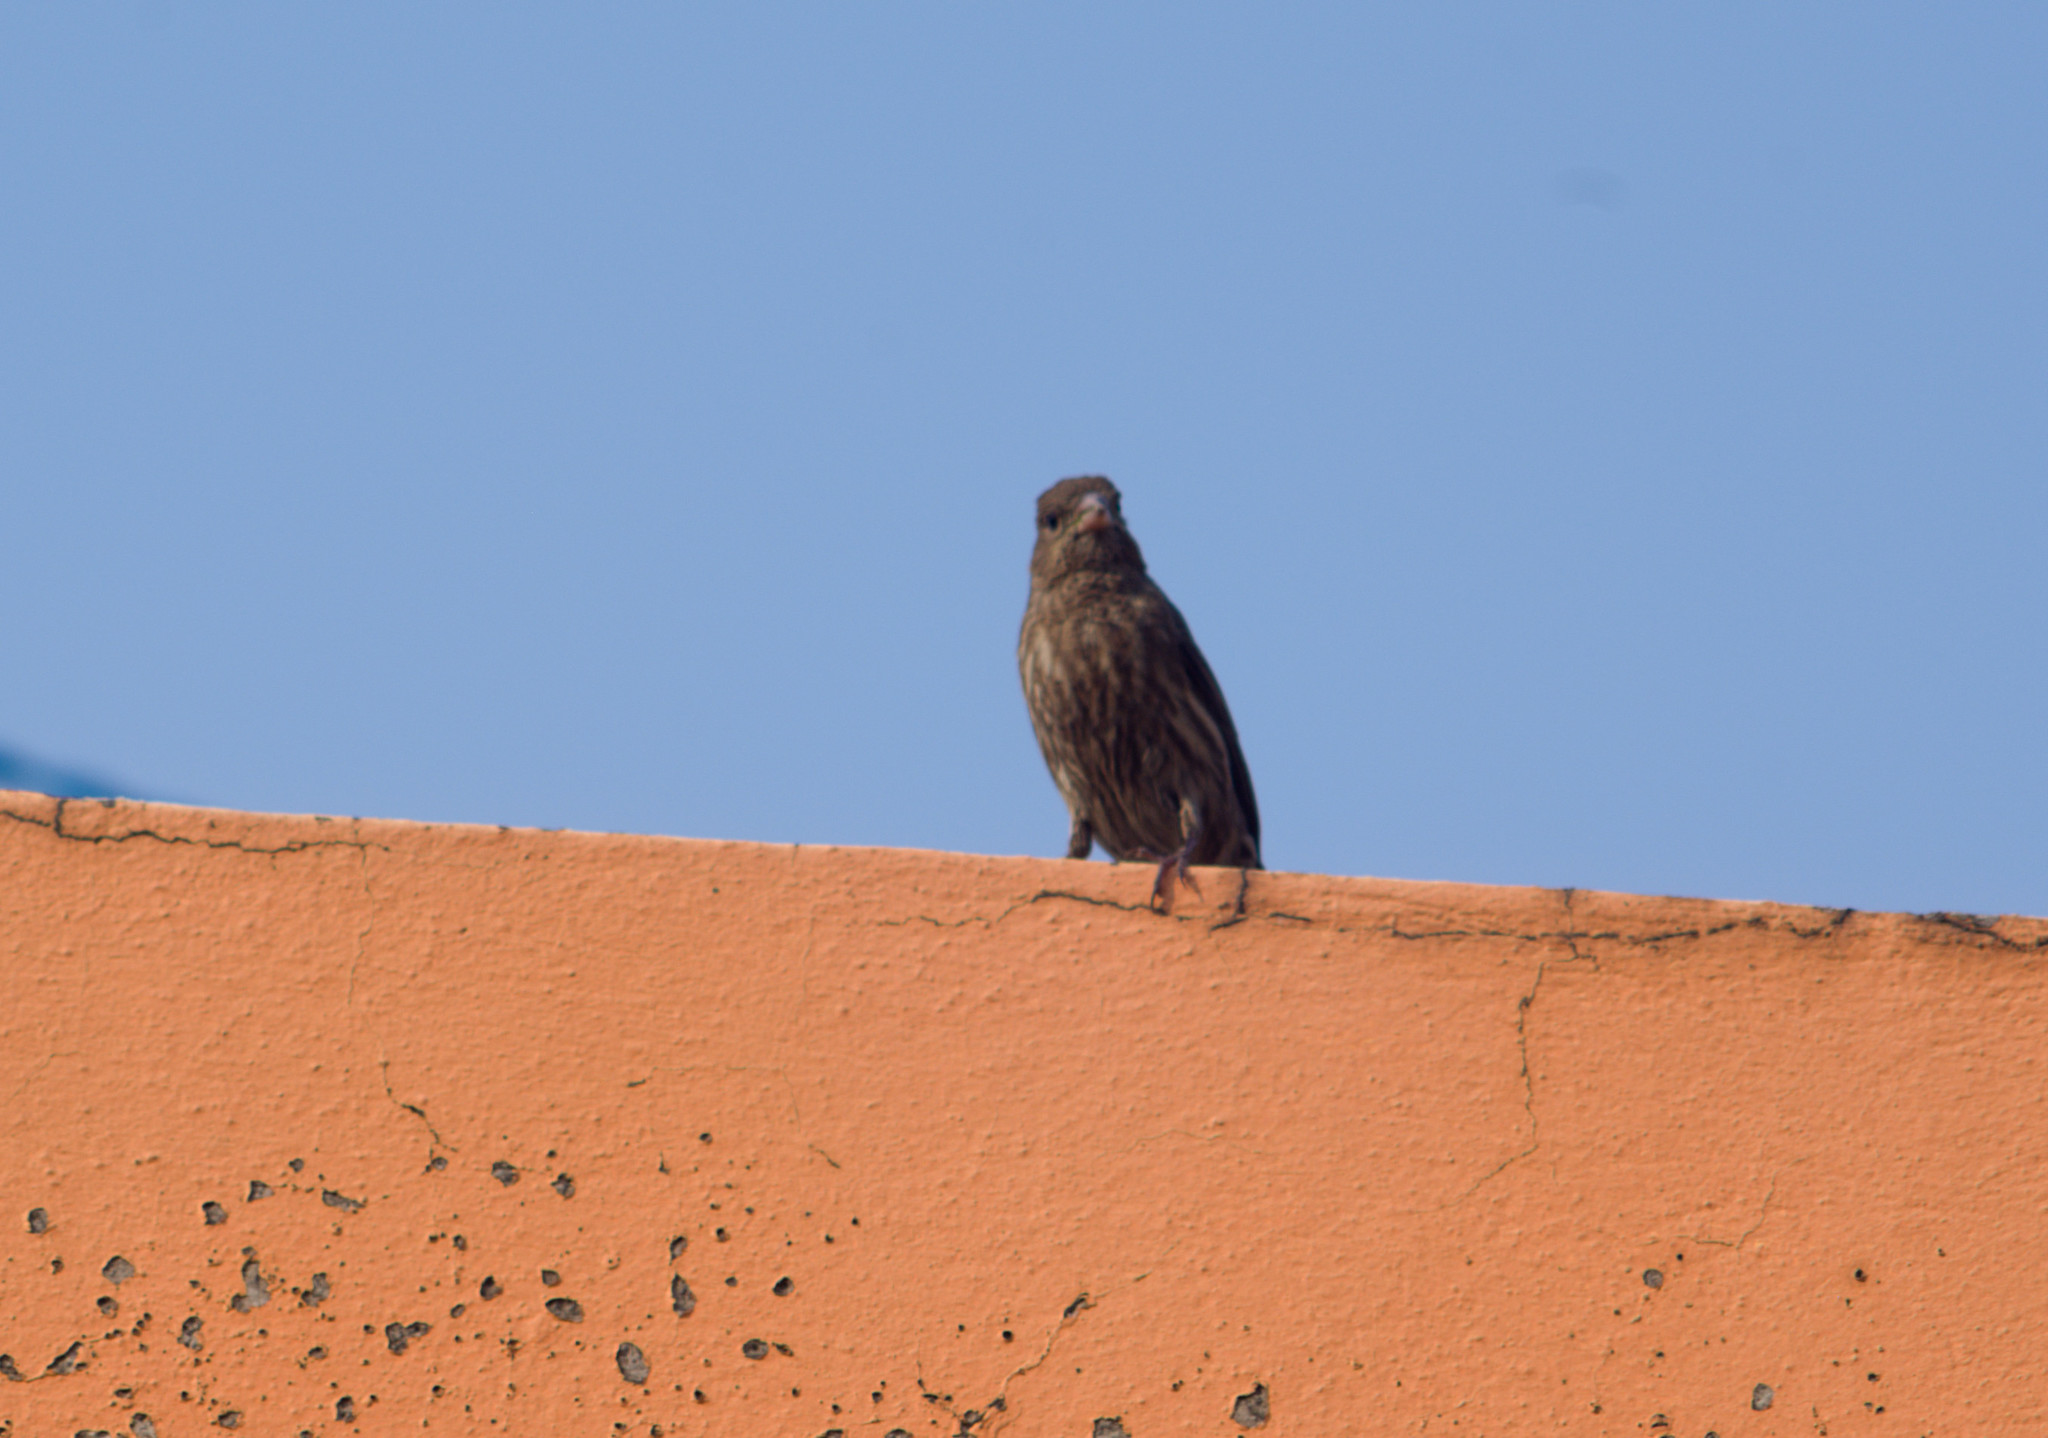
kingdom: Animalia
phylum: Chordata
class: Aves
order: Passeriformes
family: Fringillidae
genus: Haemorhous
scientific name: Haemorhous mexicanus
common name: House finch
